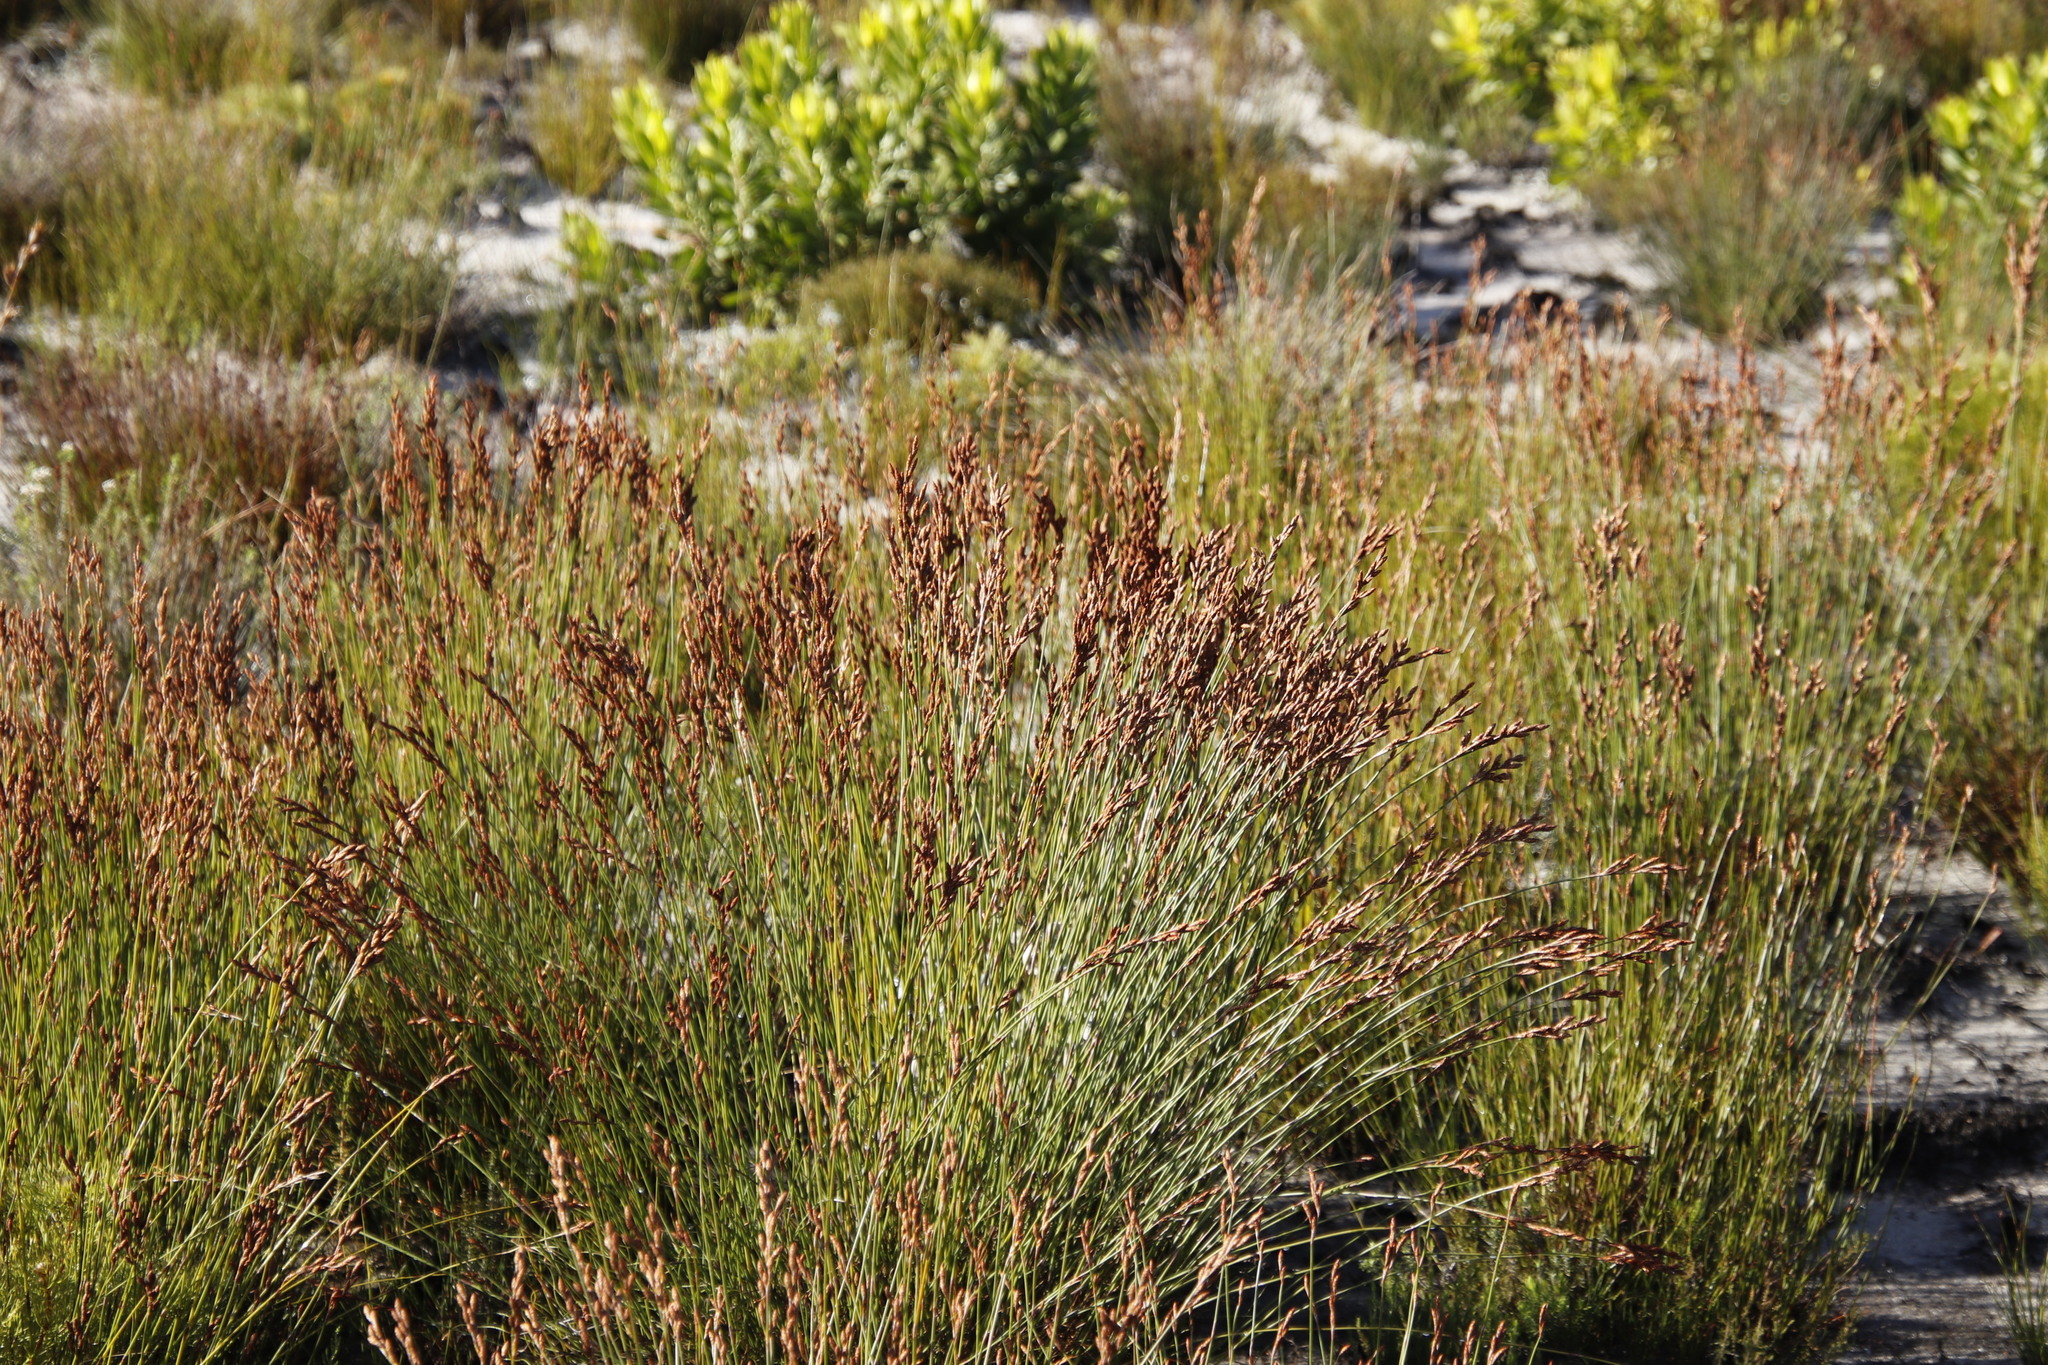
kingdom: Plantae
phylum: Tracheophyta
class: Liliopsida
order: Poales
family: Restionaceae
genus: Restio
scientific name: Restio bifurcus
